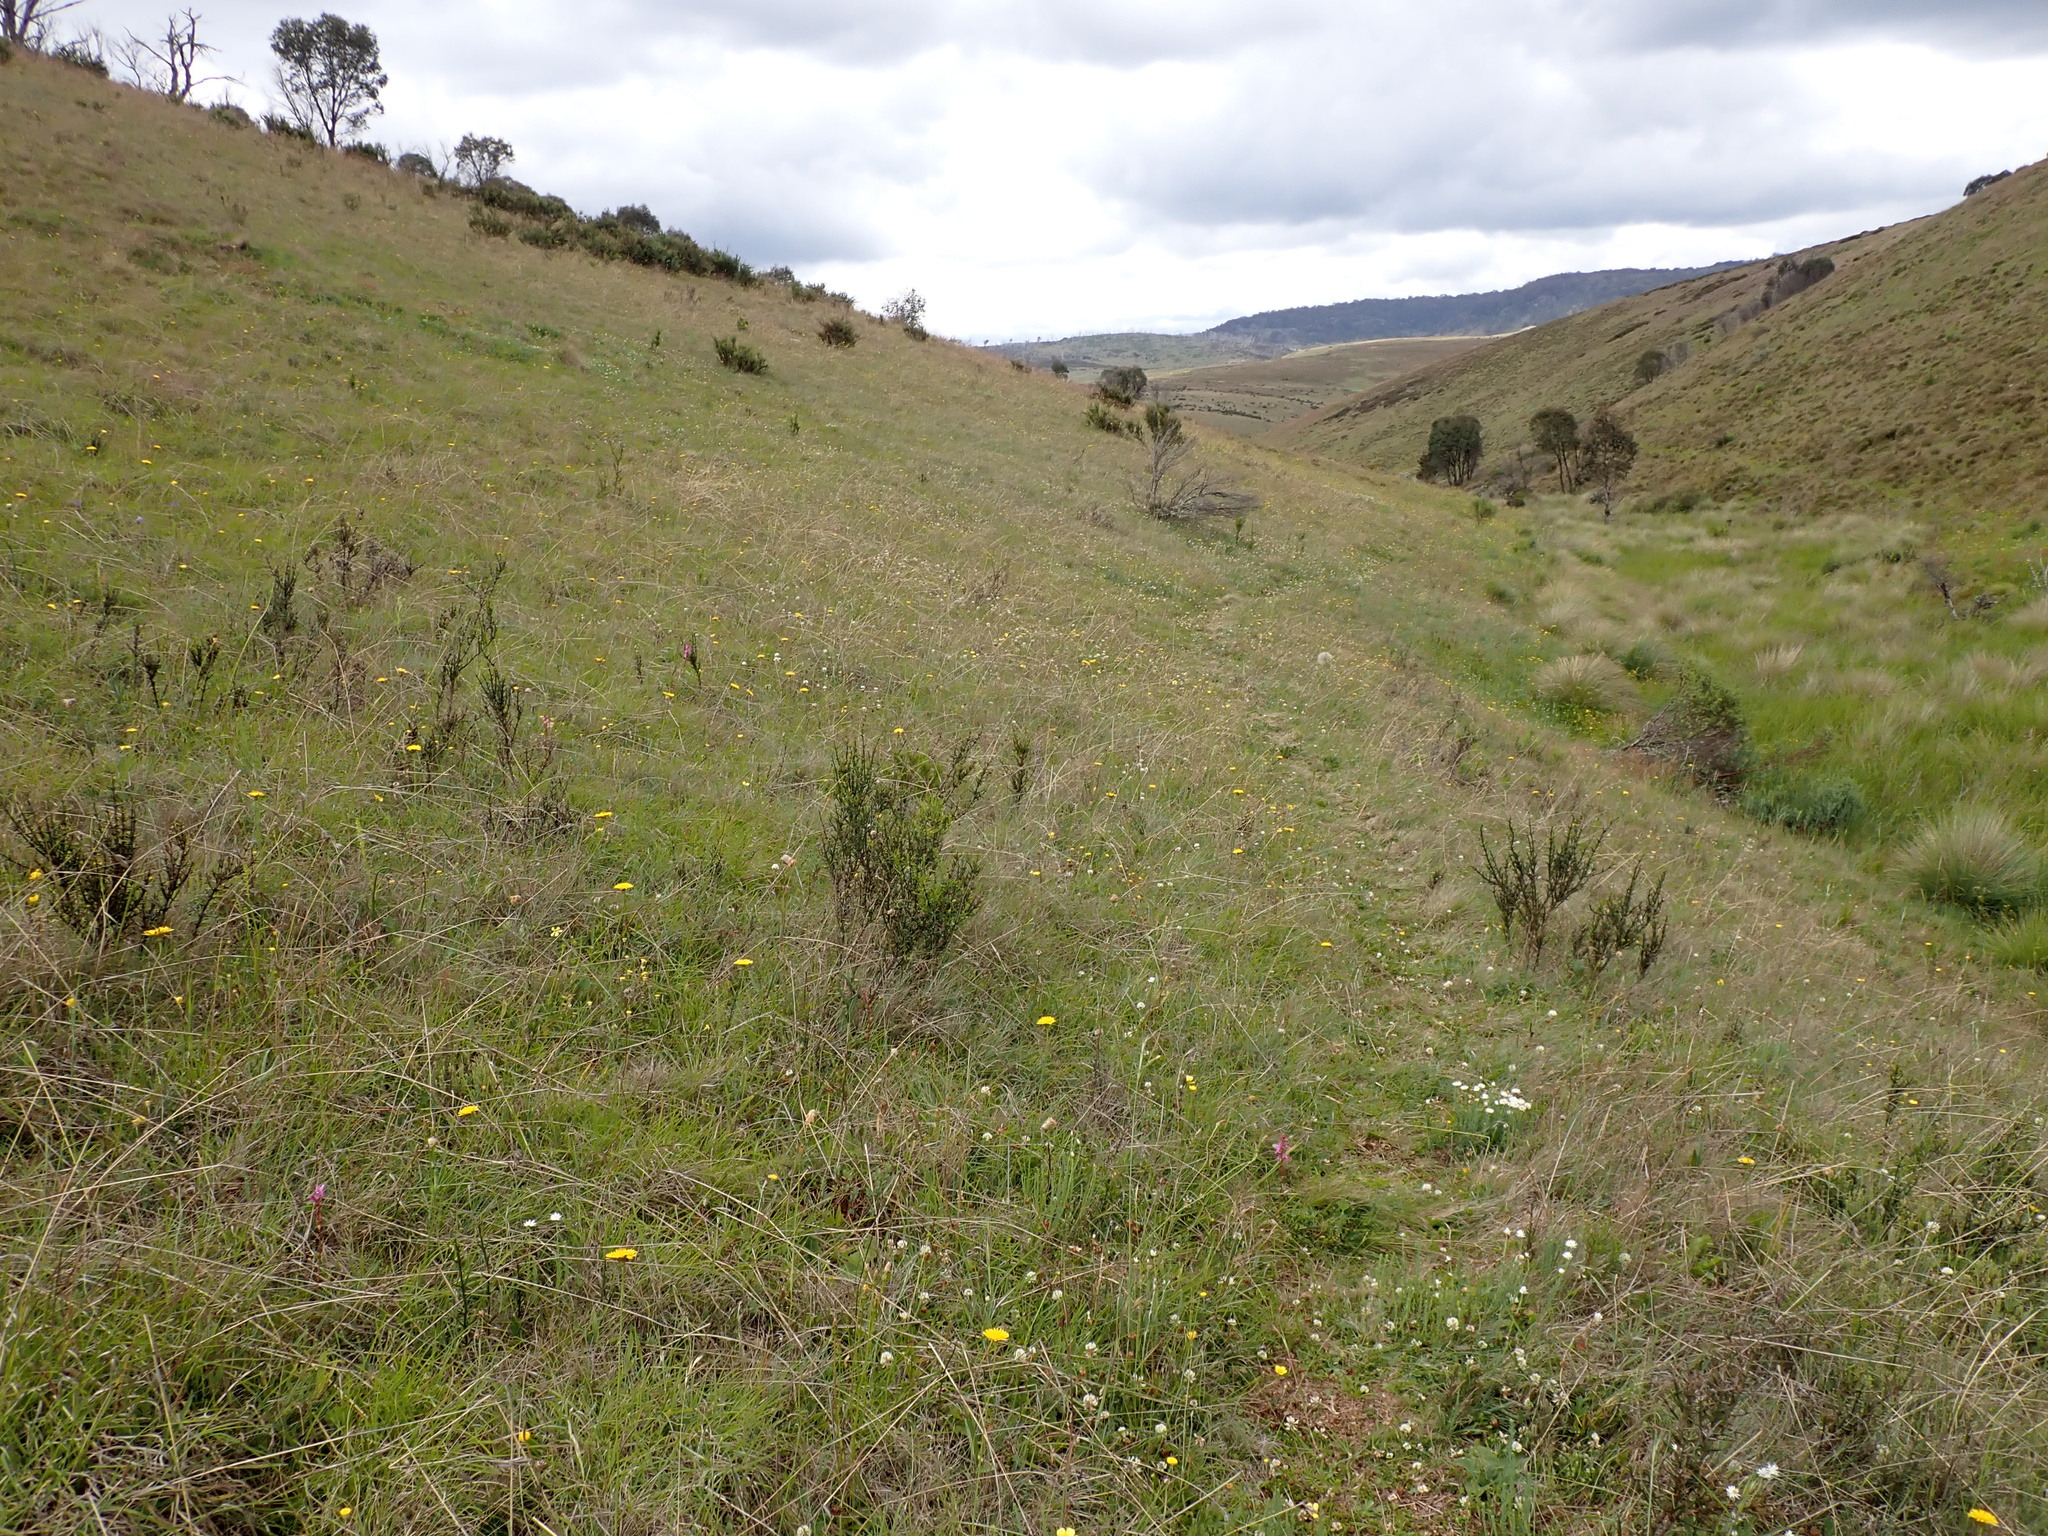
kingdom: Plantae
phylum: Tracheophyta
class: Magnoliopsida
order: Rosales
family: Rhamnaceae
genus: Discaria
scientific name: Discaria pubescens
